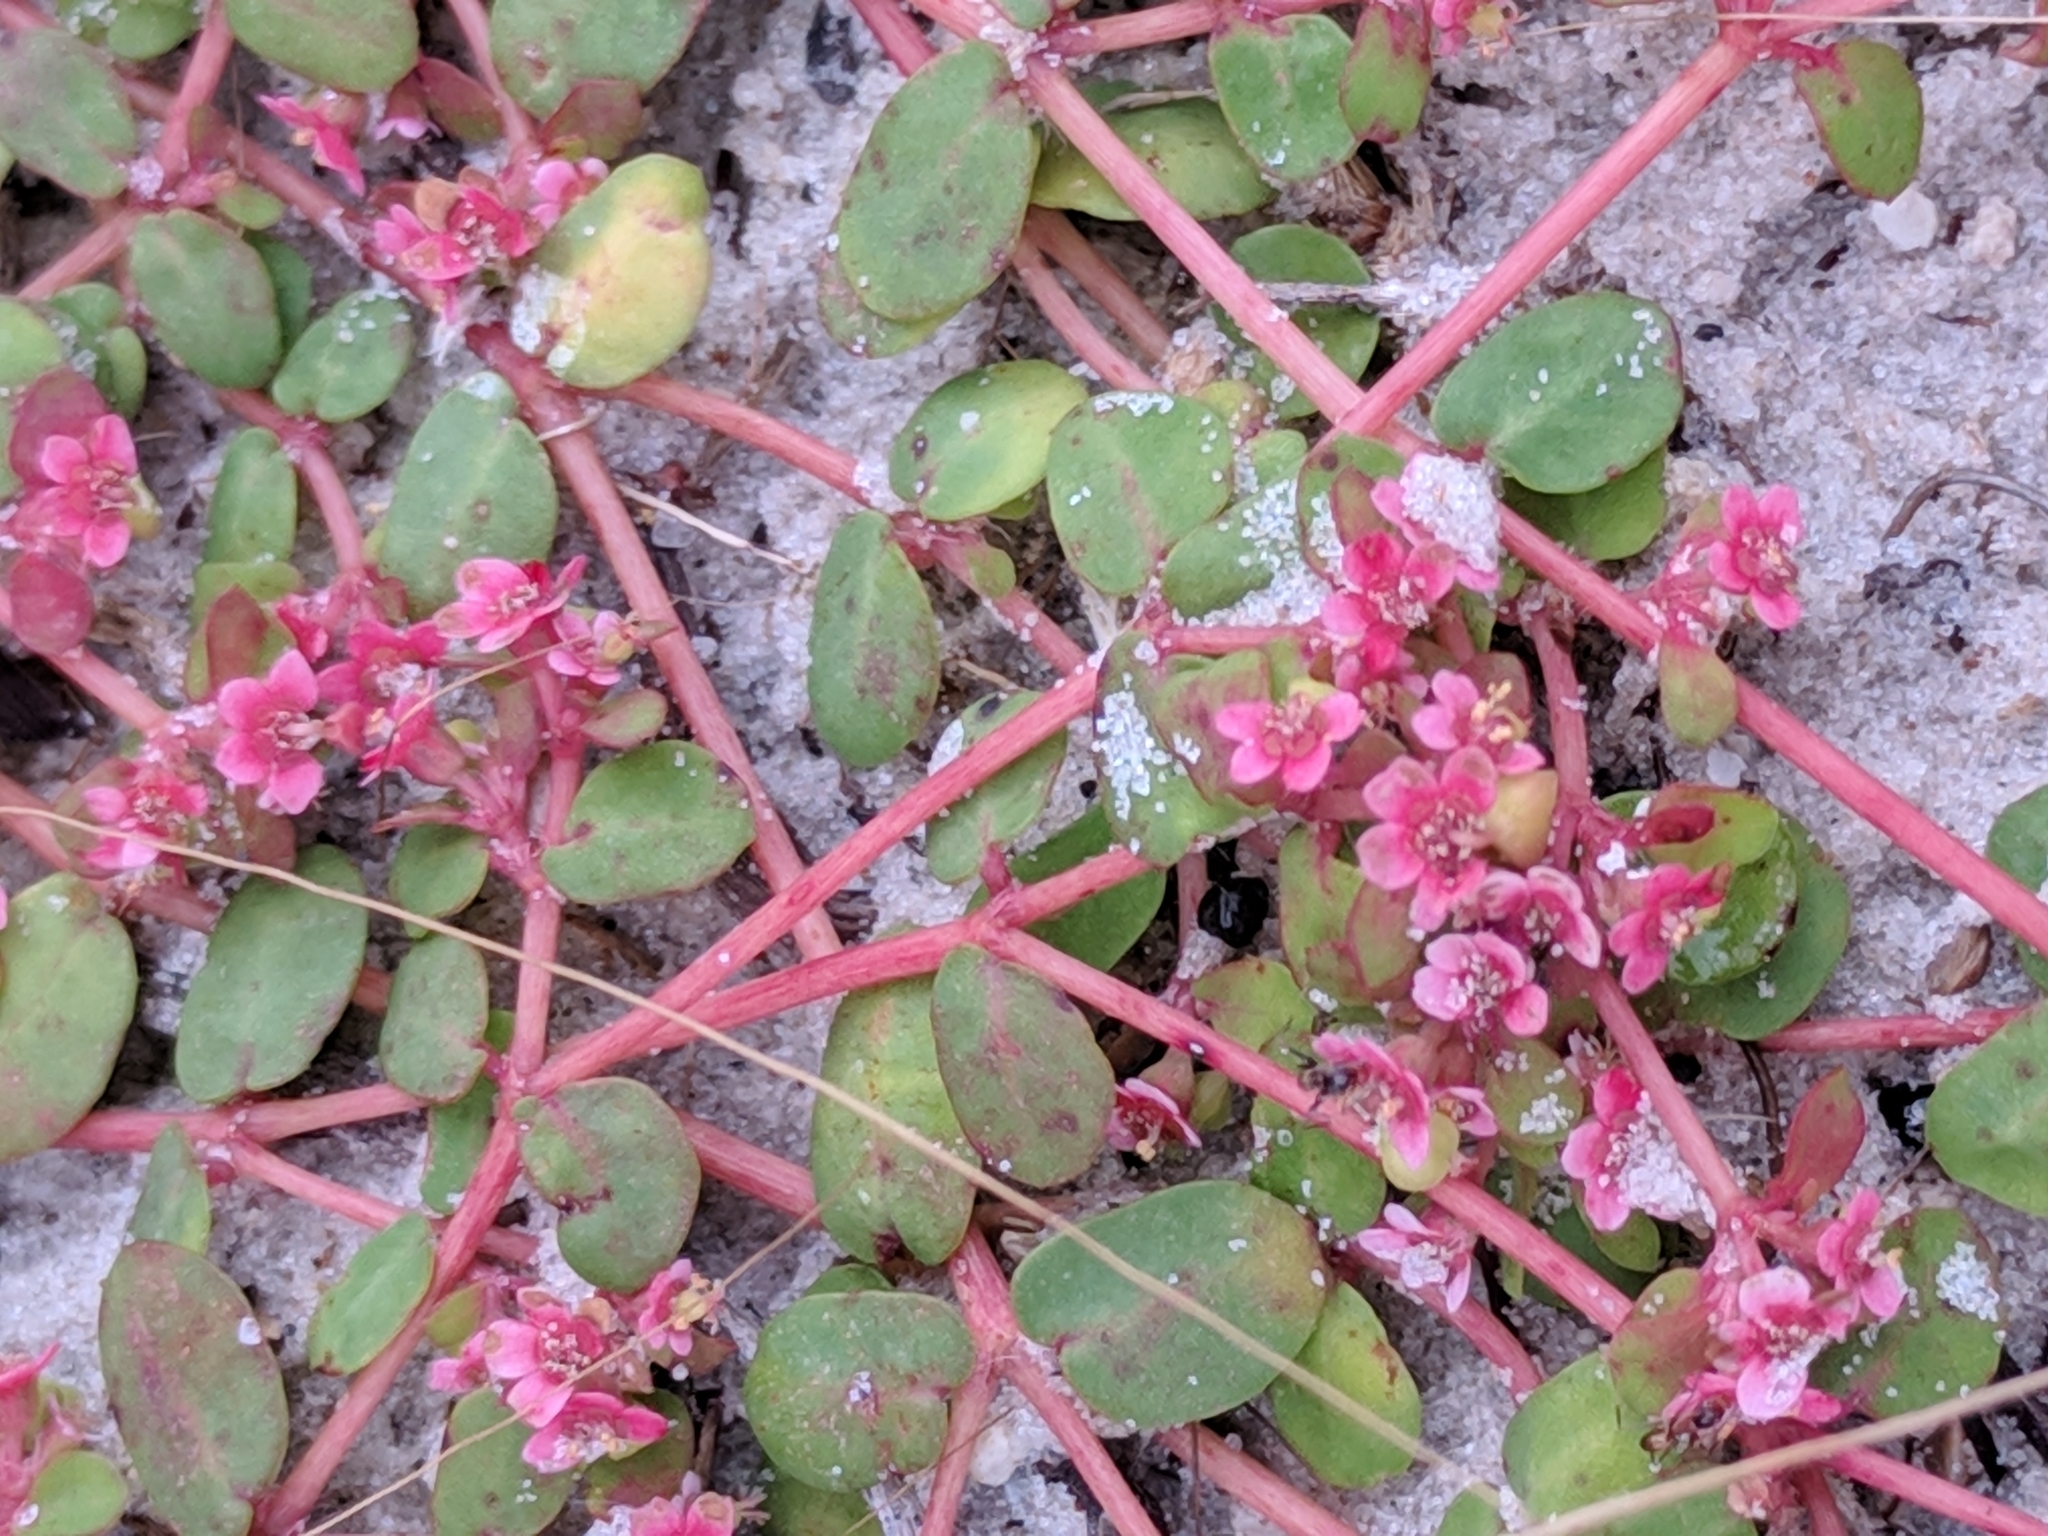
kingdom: Plantae
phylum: Tracheophyta
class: Magnoliopsida
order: Malpighiales
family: Euphorbiaceae
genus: Euphorbia
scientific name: Euphorbia cordifolia
